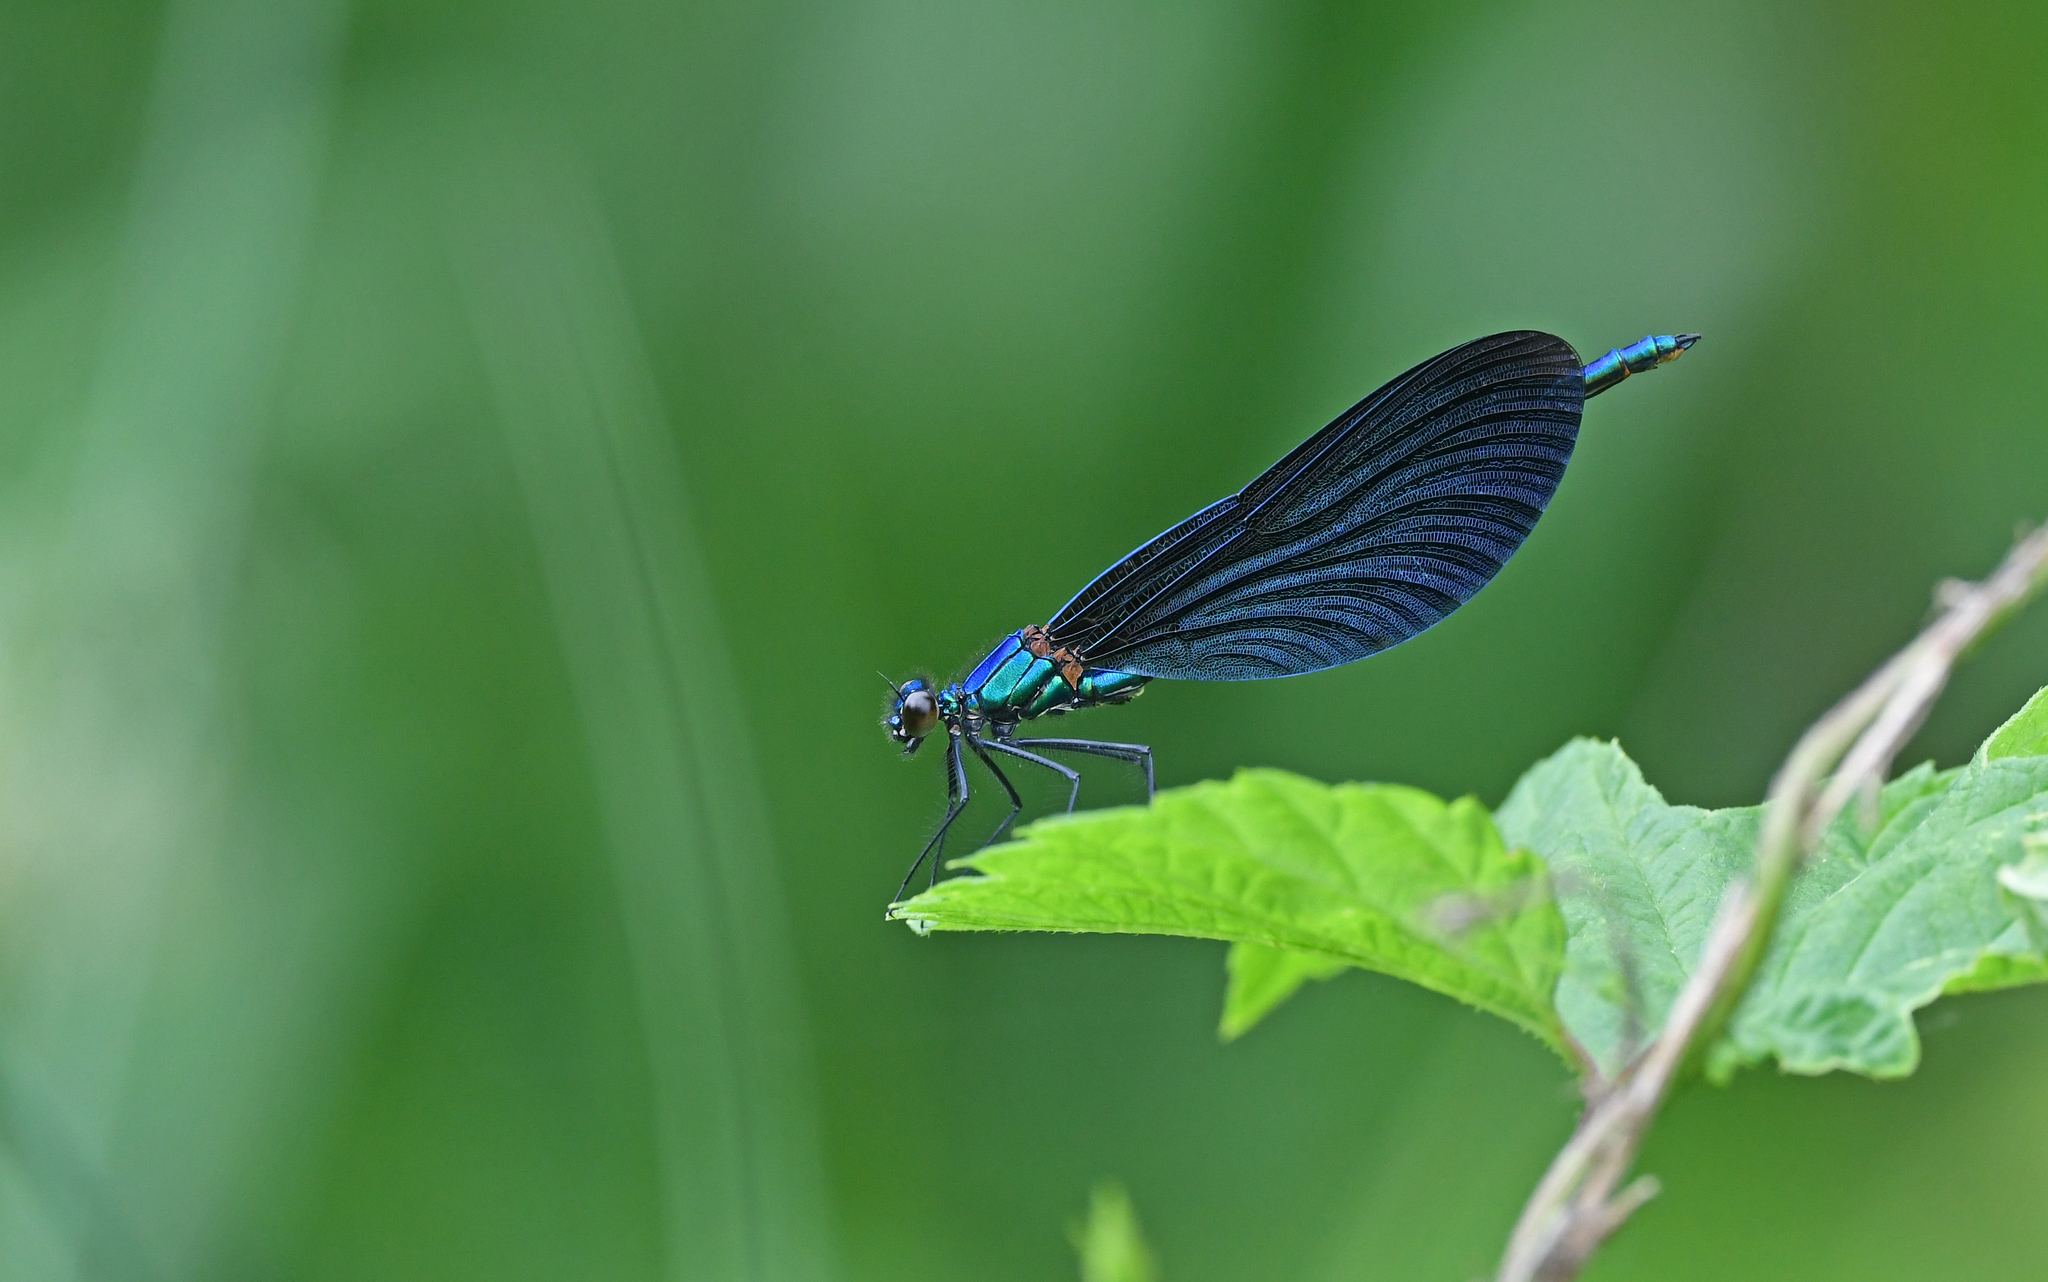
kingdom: Animalia
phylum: Arthropoda
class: Insecta
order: Odonata
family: Calopterygidae
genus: Calopteryx
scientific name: Calopteryx virgo
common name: Beautiful demoiselle
